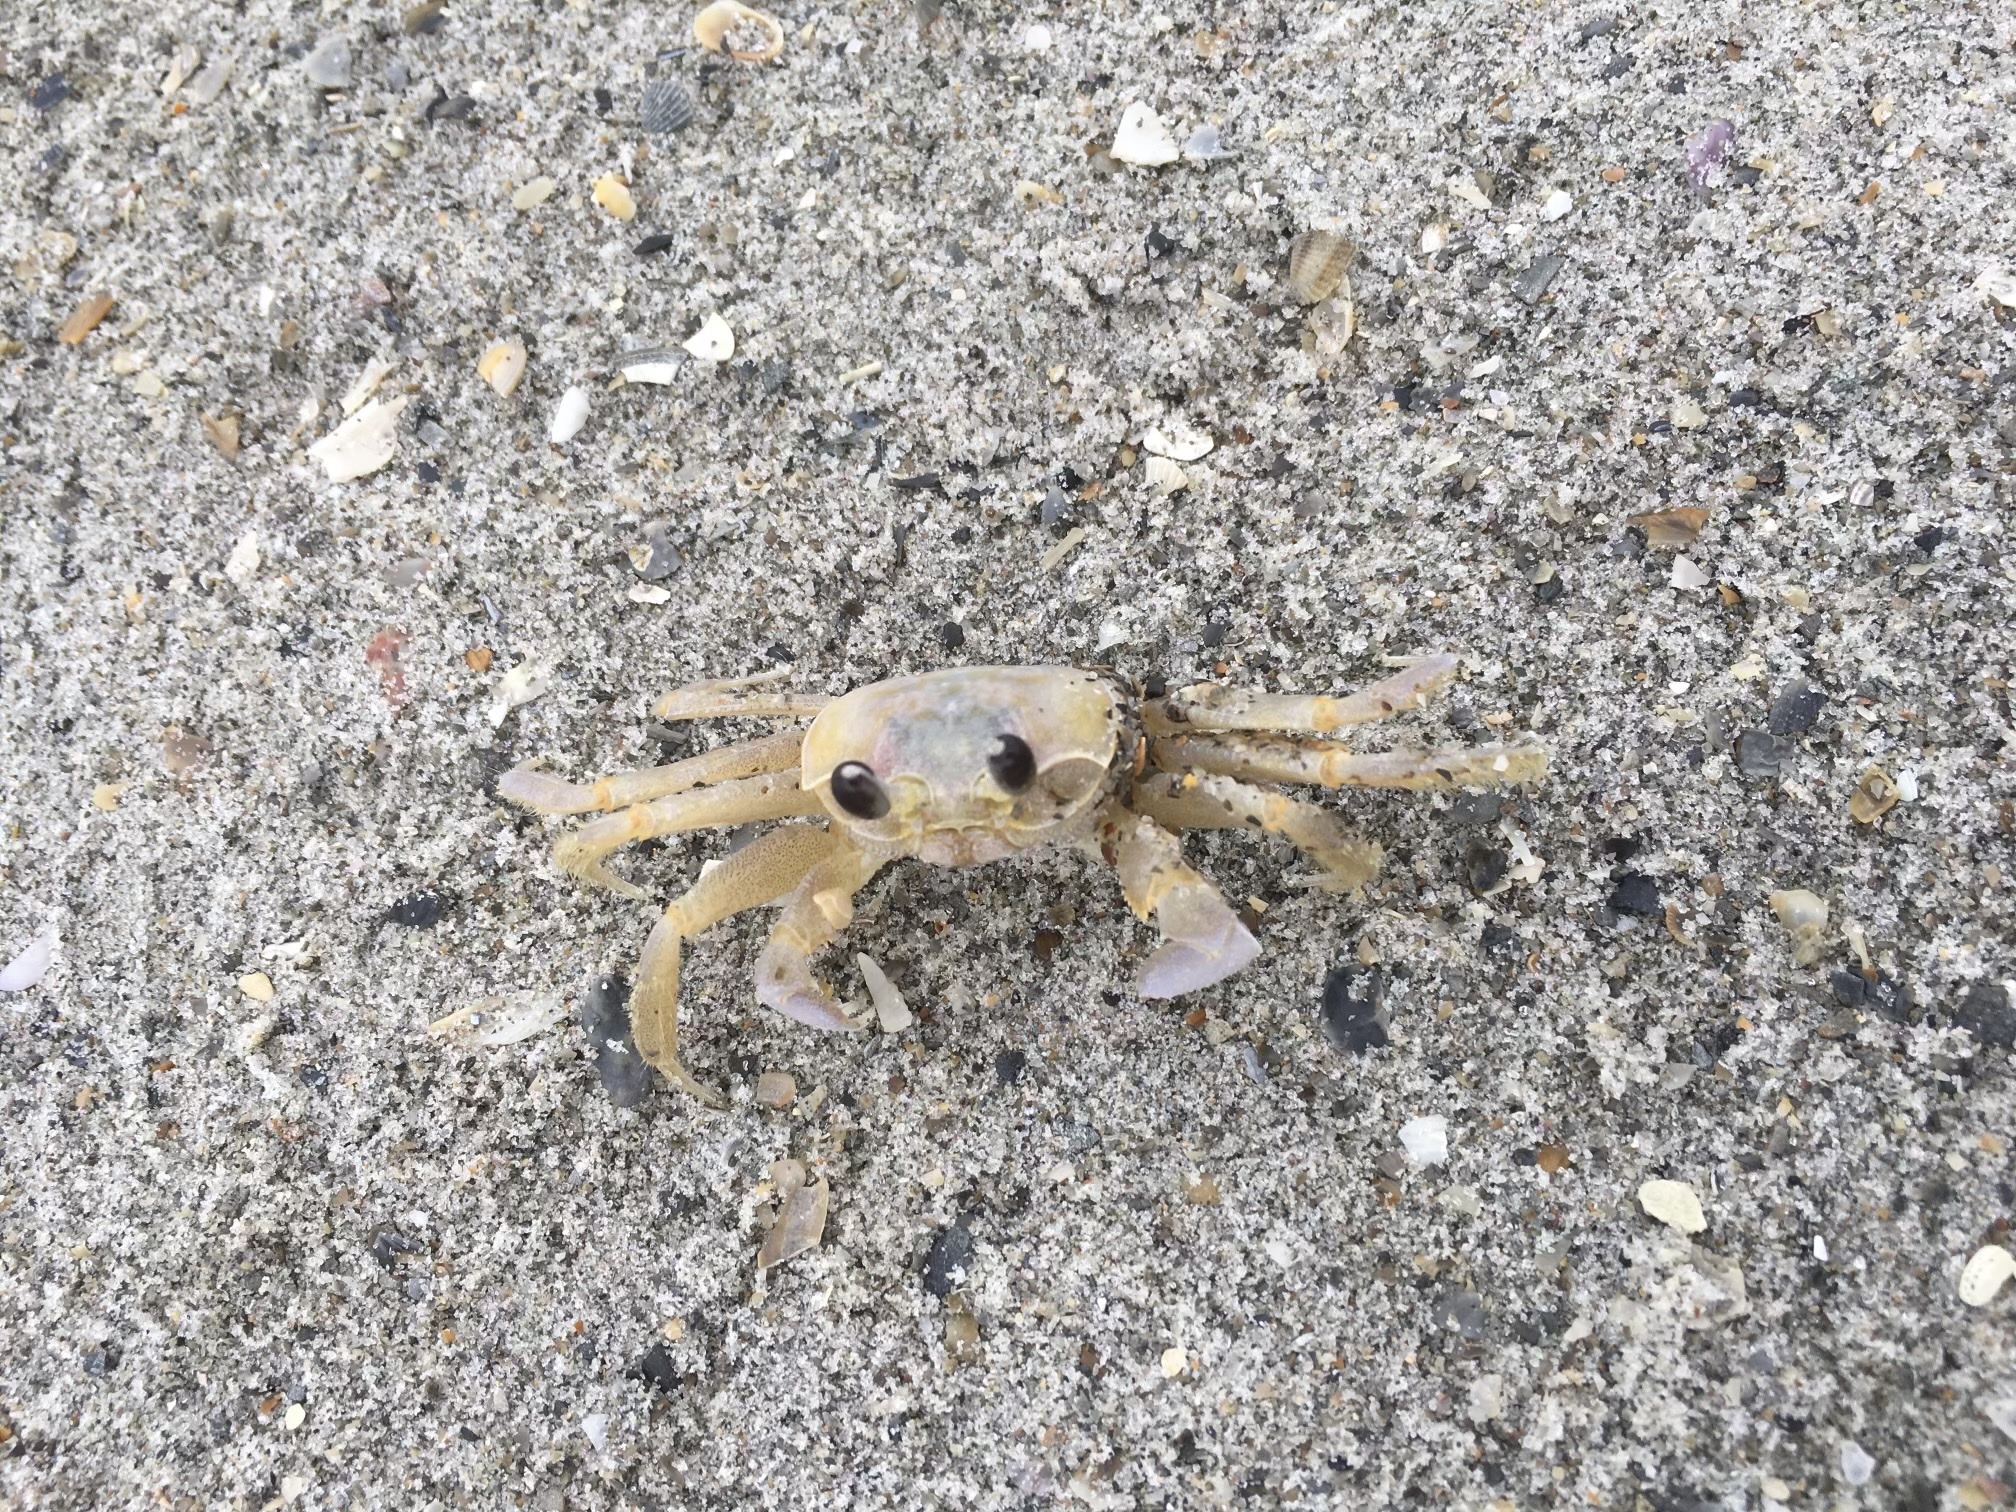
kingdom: Animalia
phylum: Arthropoda
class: Malacostraca
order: Decapoda
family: Ocypodidae
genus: Ocypode
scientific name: Ocypode quadrata
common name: Ghost crab
